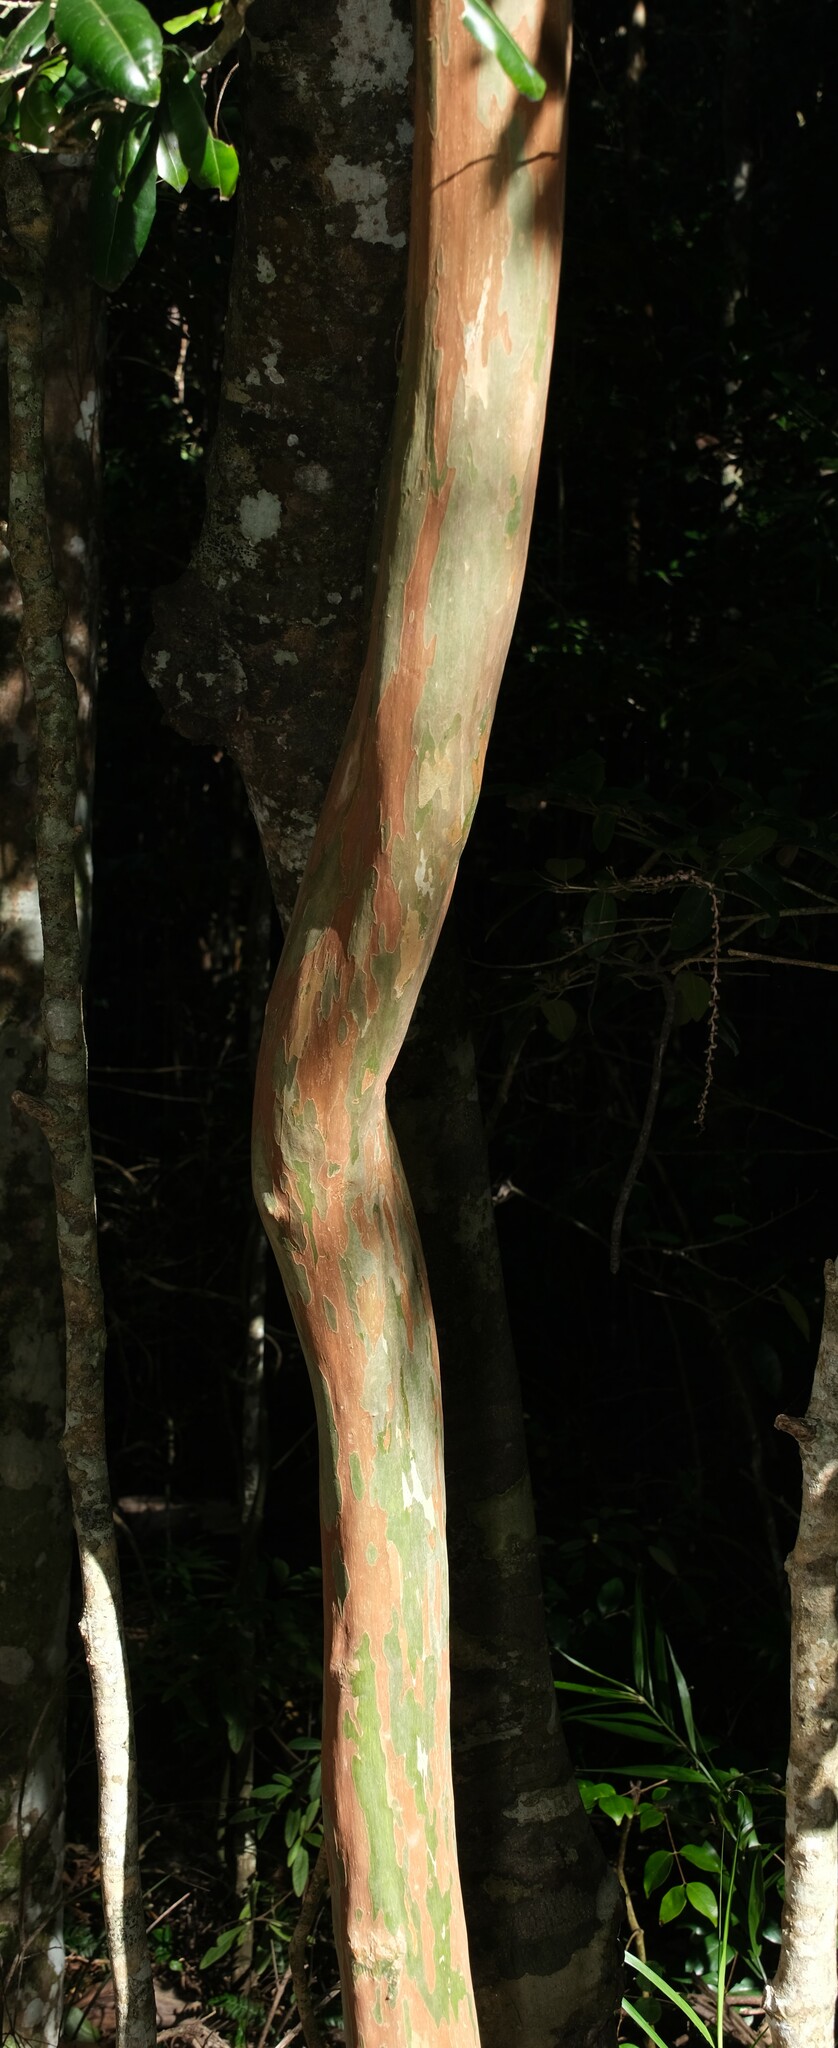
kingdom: Plantae
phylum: Tracheophyta
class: Magnoliopsida
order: Myrtales
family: Myrtaceae
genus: Gossia
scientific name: Gossia bidwillii
